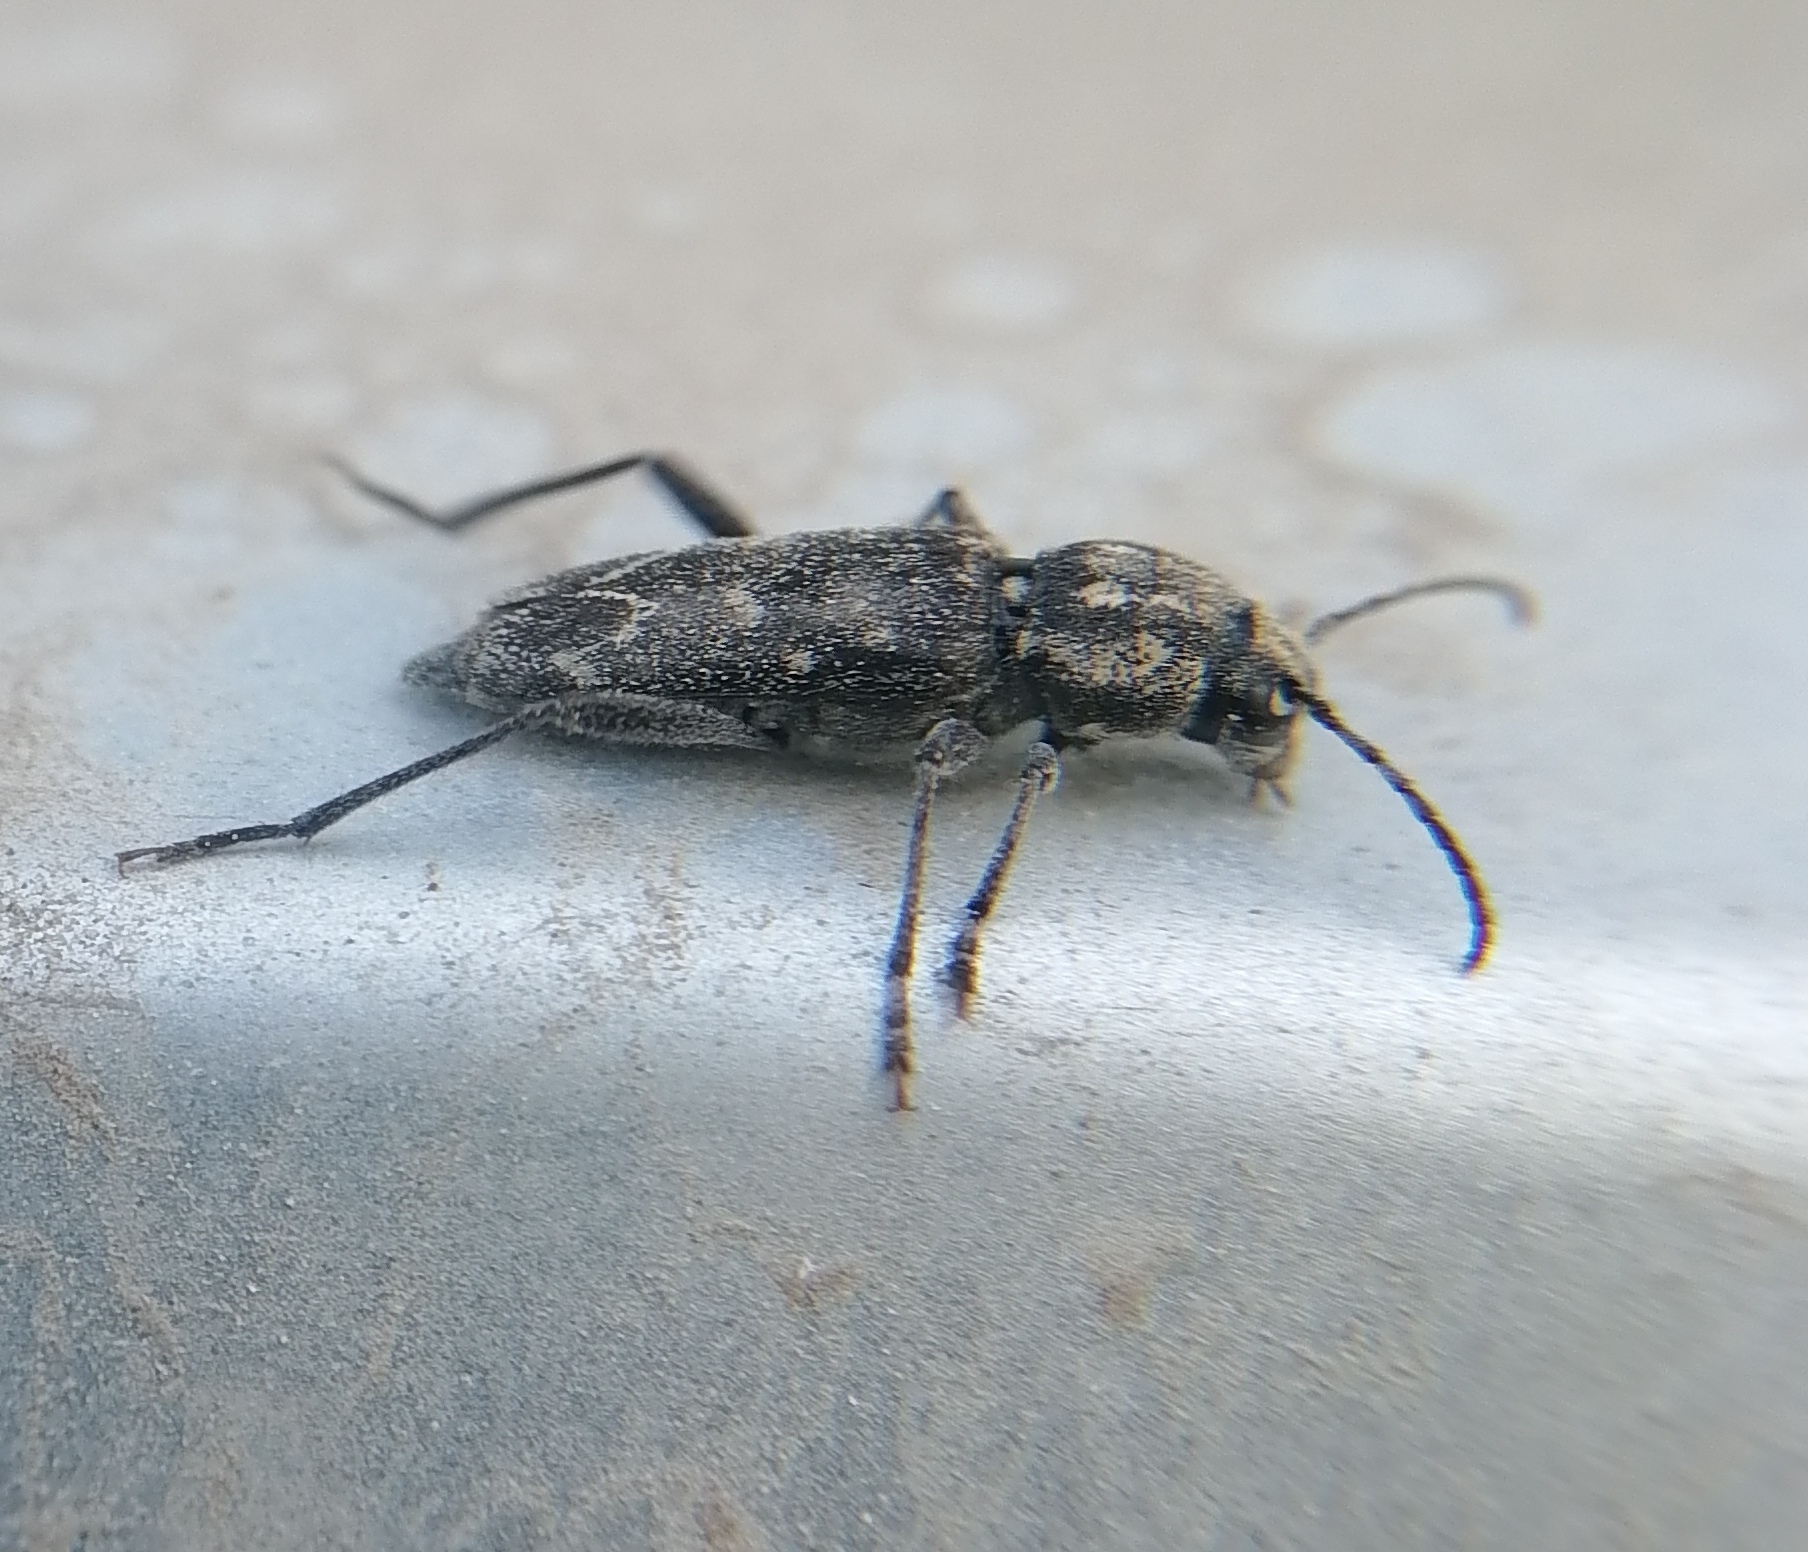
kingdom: Animalia
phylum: Arthropoda
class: Insecta
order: Coleoptera
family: Cerambycidae
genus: Xylotrechus
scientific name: Xylotrechus rusticus
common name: Grey tiger long-horned beetle
